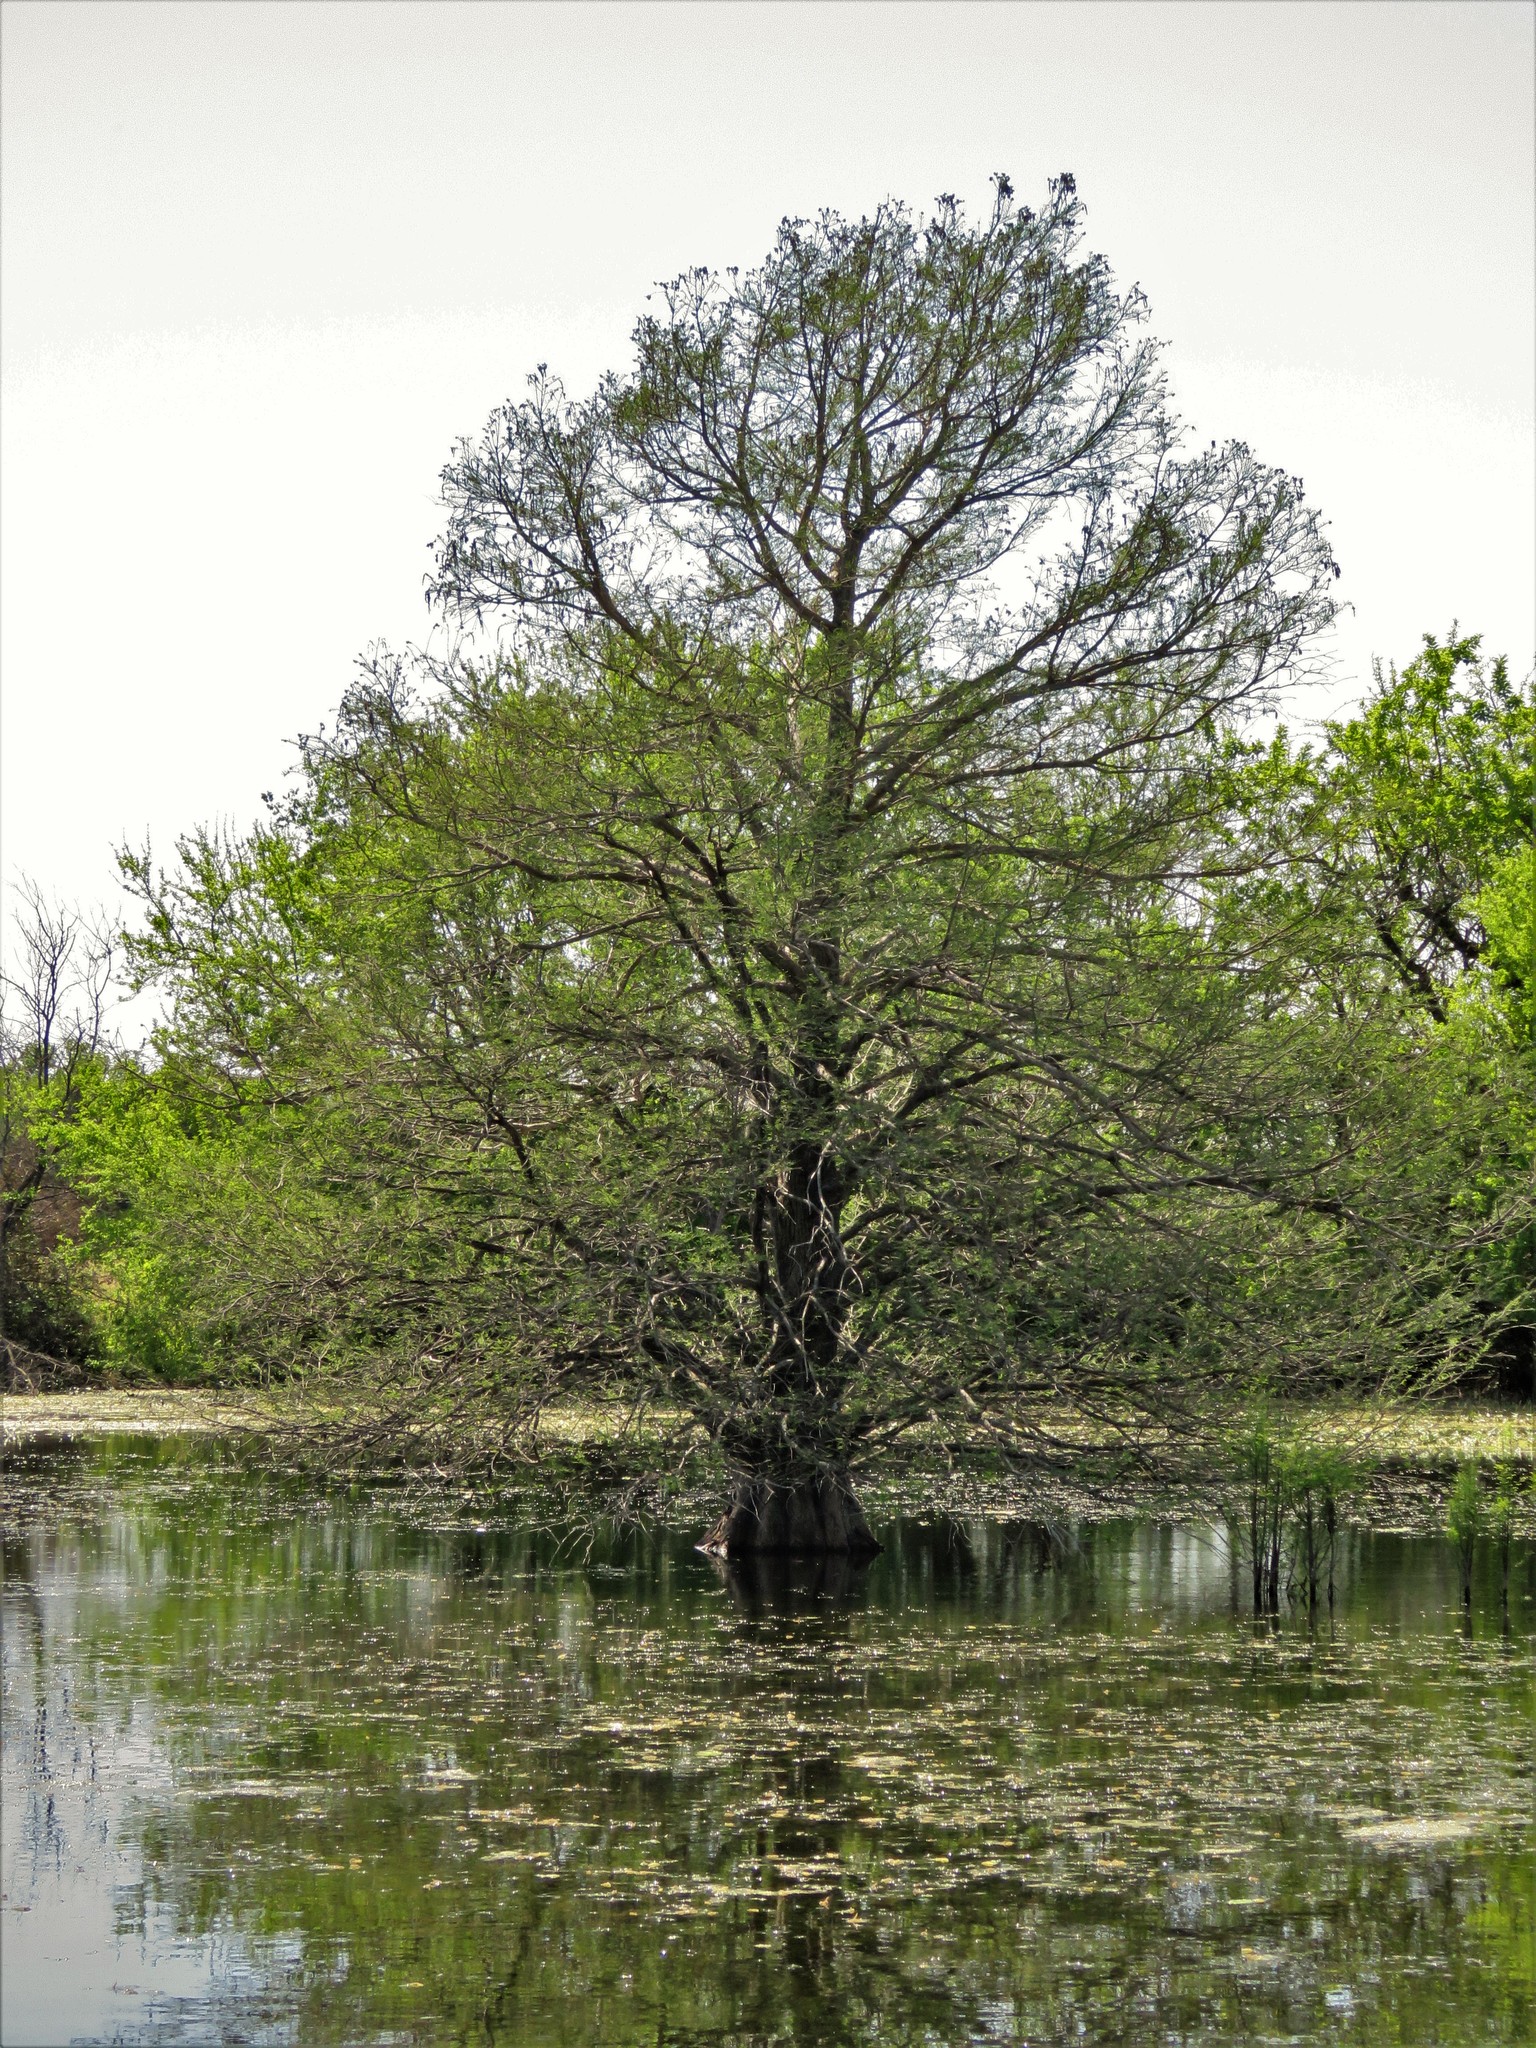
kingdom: Plantae
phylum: Tracheophyta
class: Pinopsida
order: Pinales
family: Cupressaceae
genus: Taxodium
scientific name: Taxodium distichum
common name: Bald cypress
